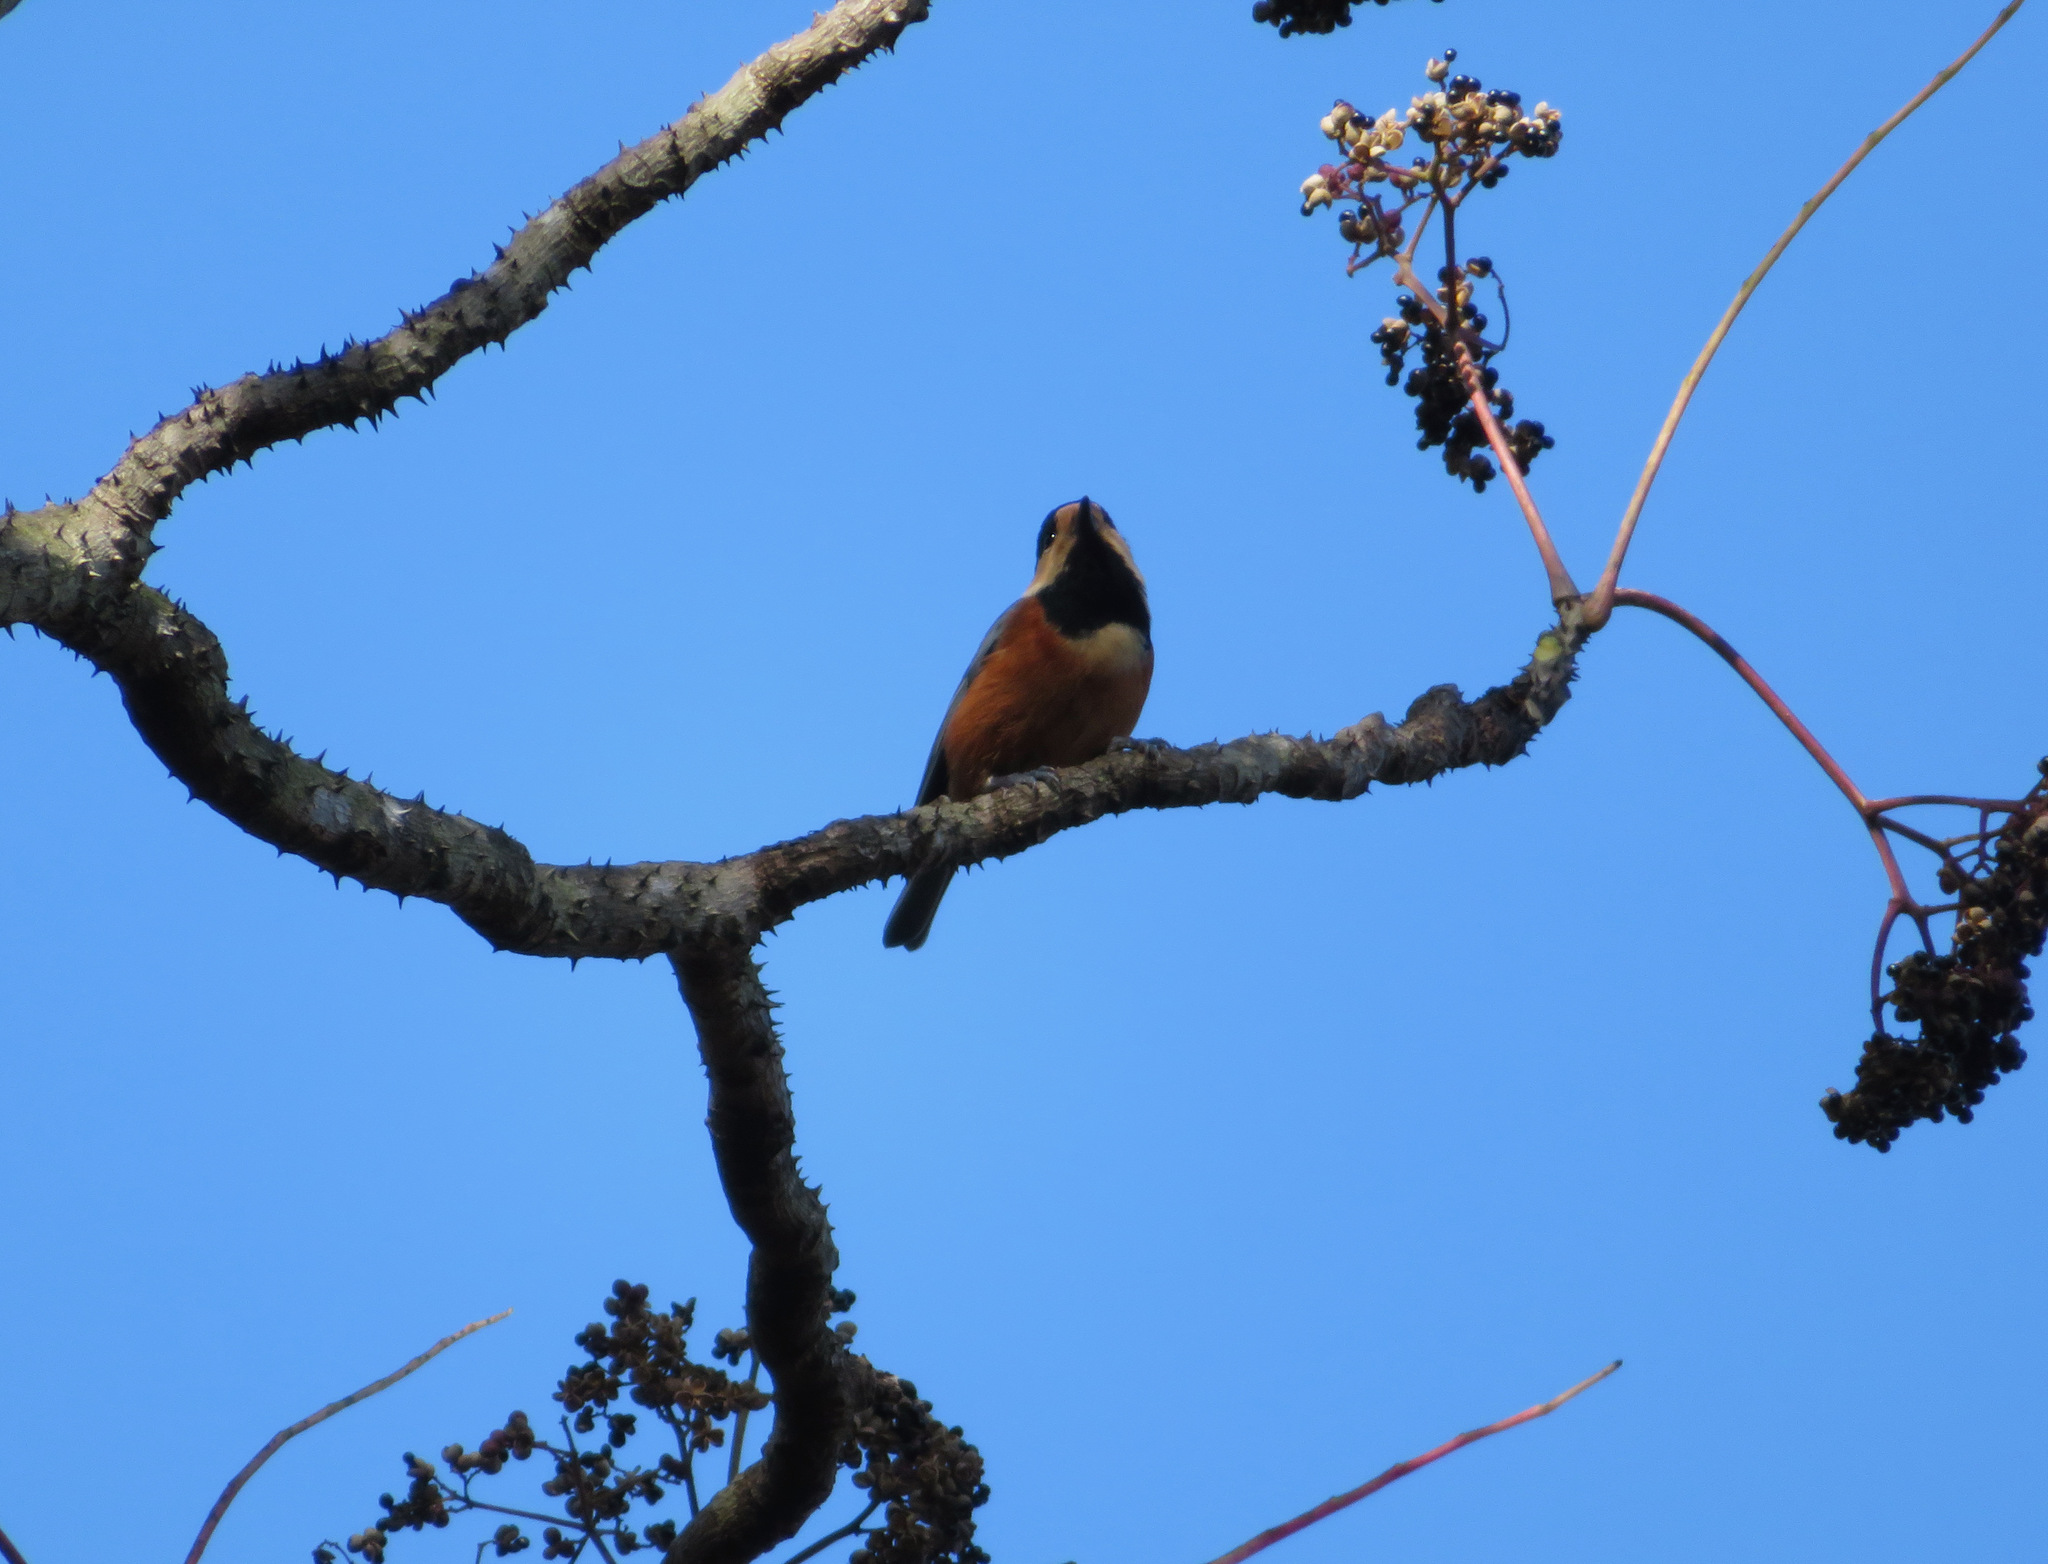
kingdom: Animalia
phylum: Chordata
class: Aves
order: Passeriformes
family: Paridae
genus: Poecile
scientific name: Poecile varius
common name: Varied tit
